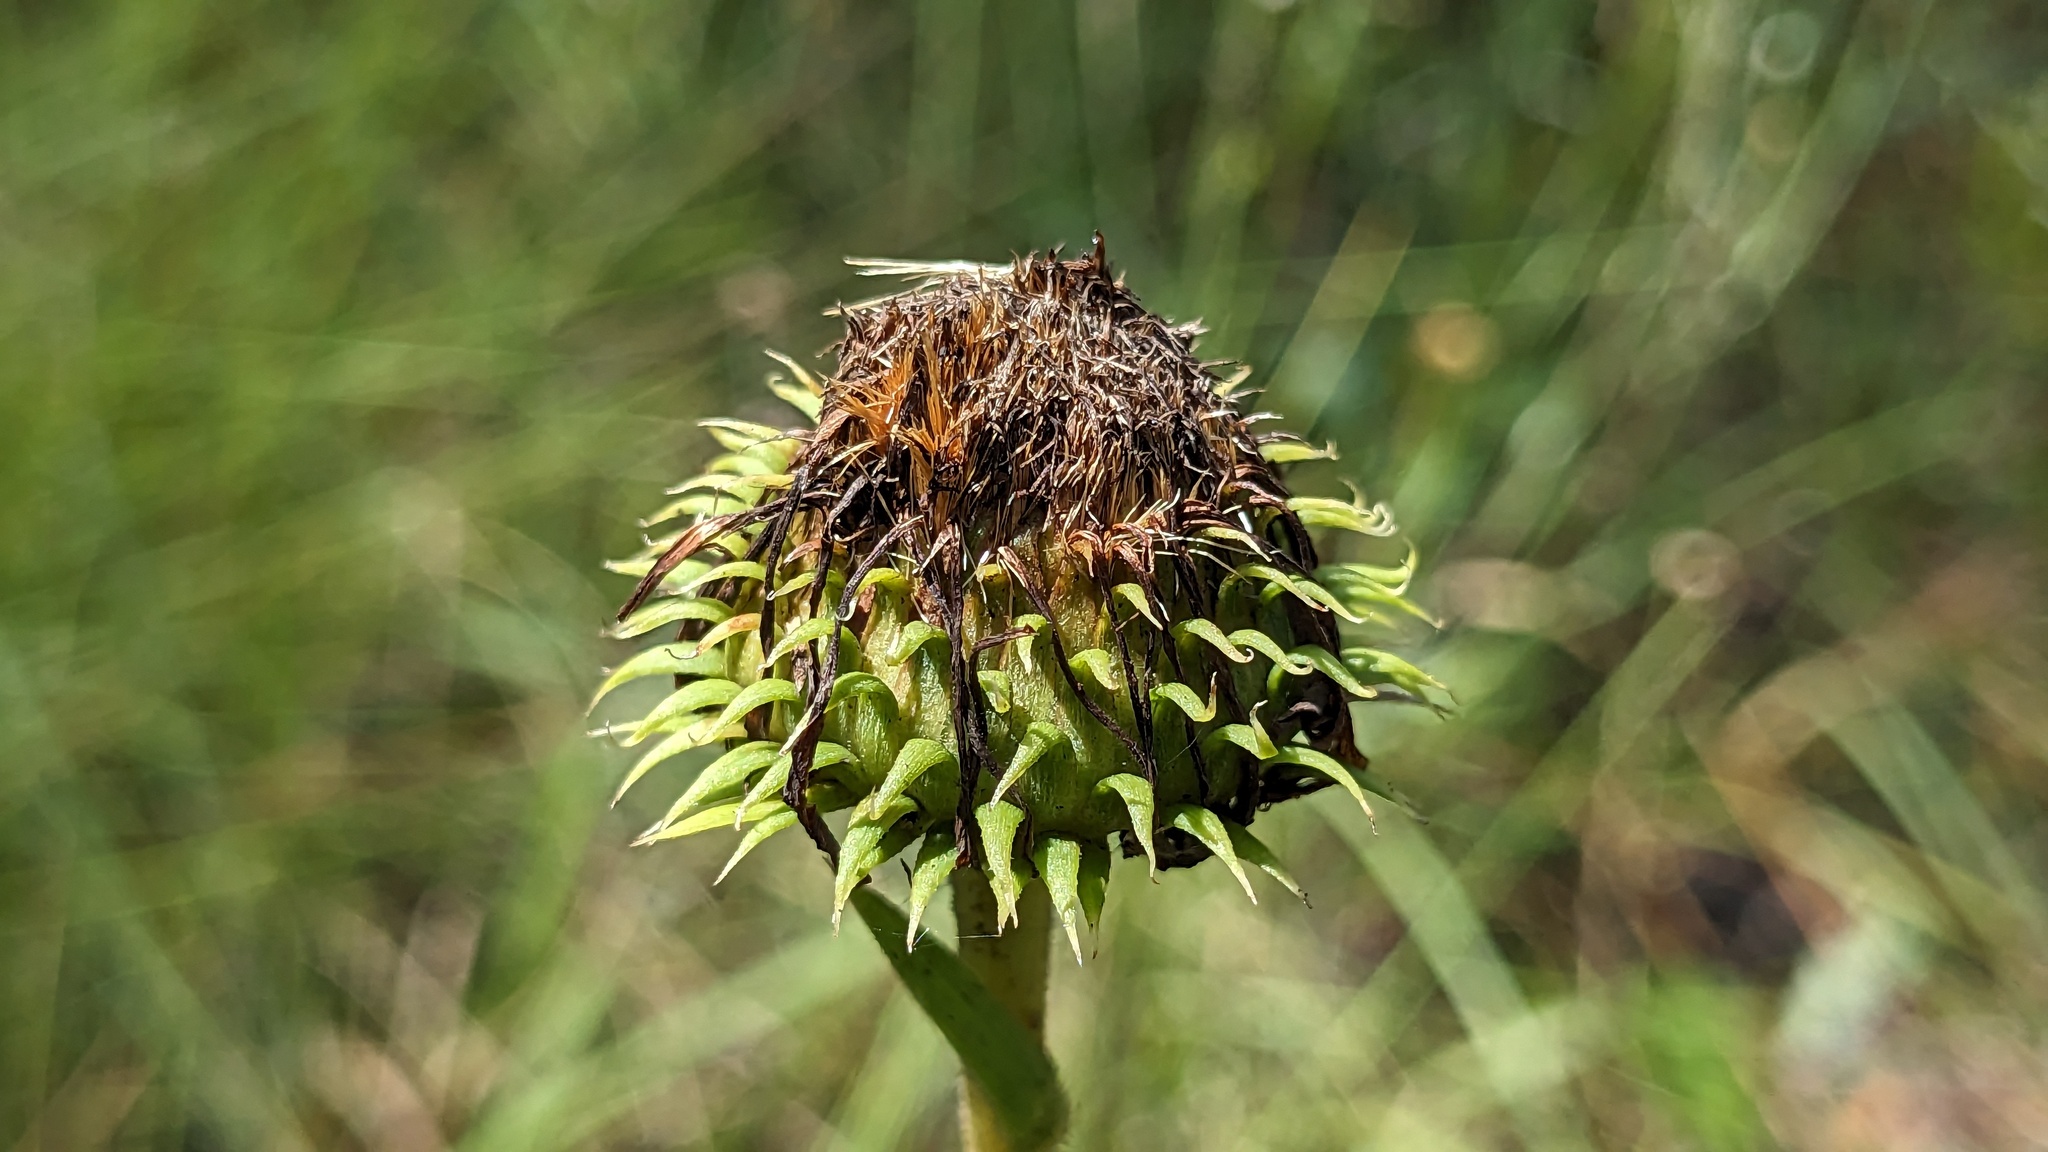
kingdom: Plantae
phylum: Tracheophyta
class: Magnoliopsida
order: Asterales
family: Asteraceae
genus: Eurybia
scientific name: Eurybia eryngiifolia
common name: Thistle-leaf aster
